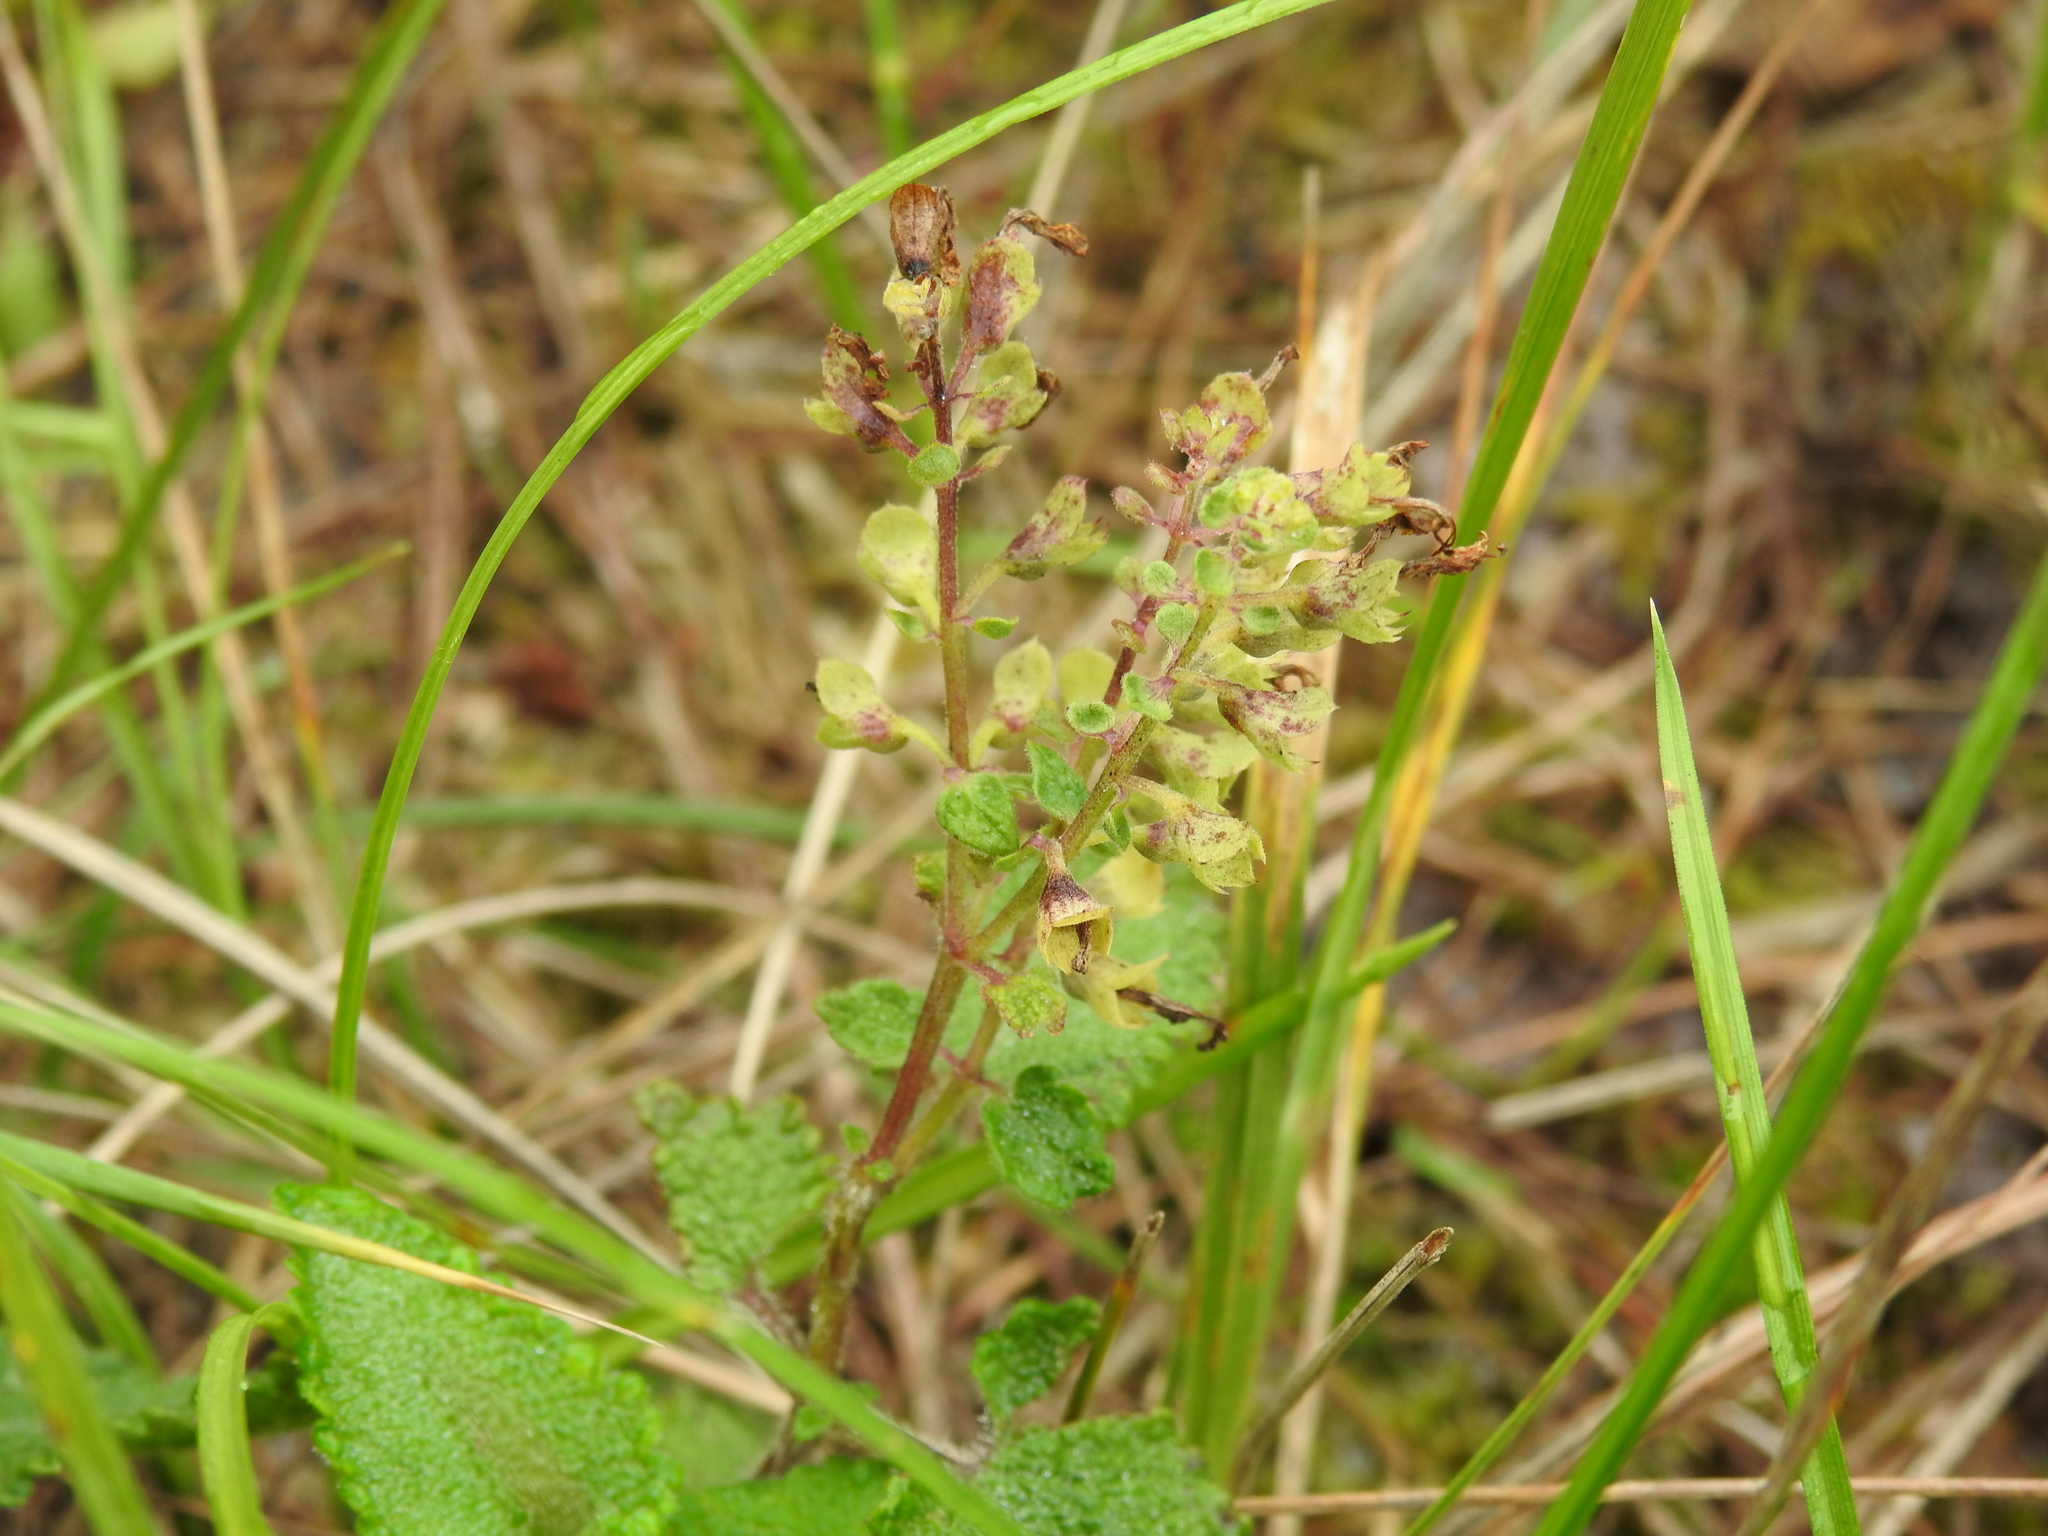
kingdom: Plantae
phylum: Tracheophyta
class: Magnoliopsida
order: Lamiales
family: Lamiaceae
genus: Teucrium
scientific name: Teucrium scorodonia
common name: Woodland germander
